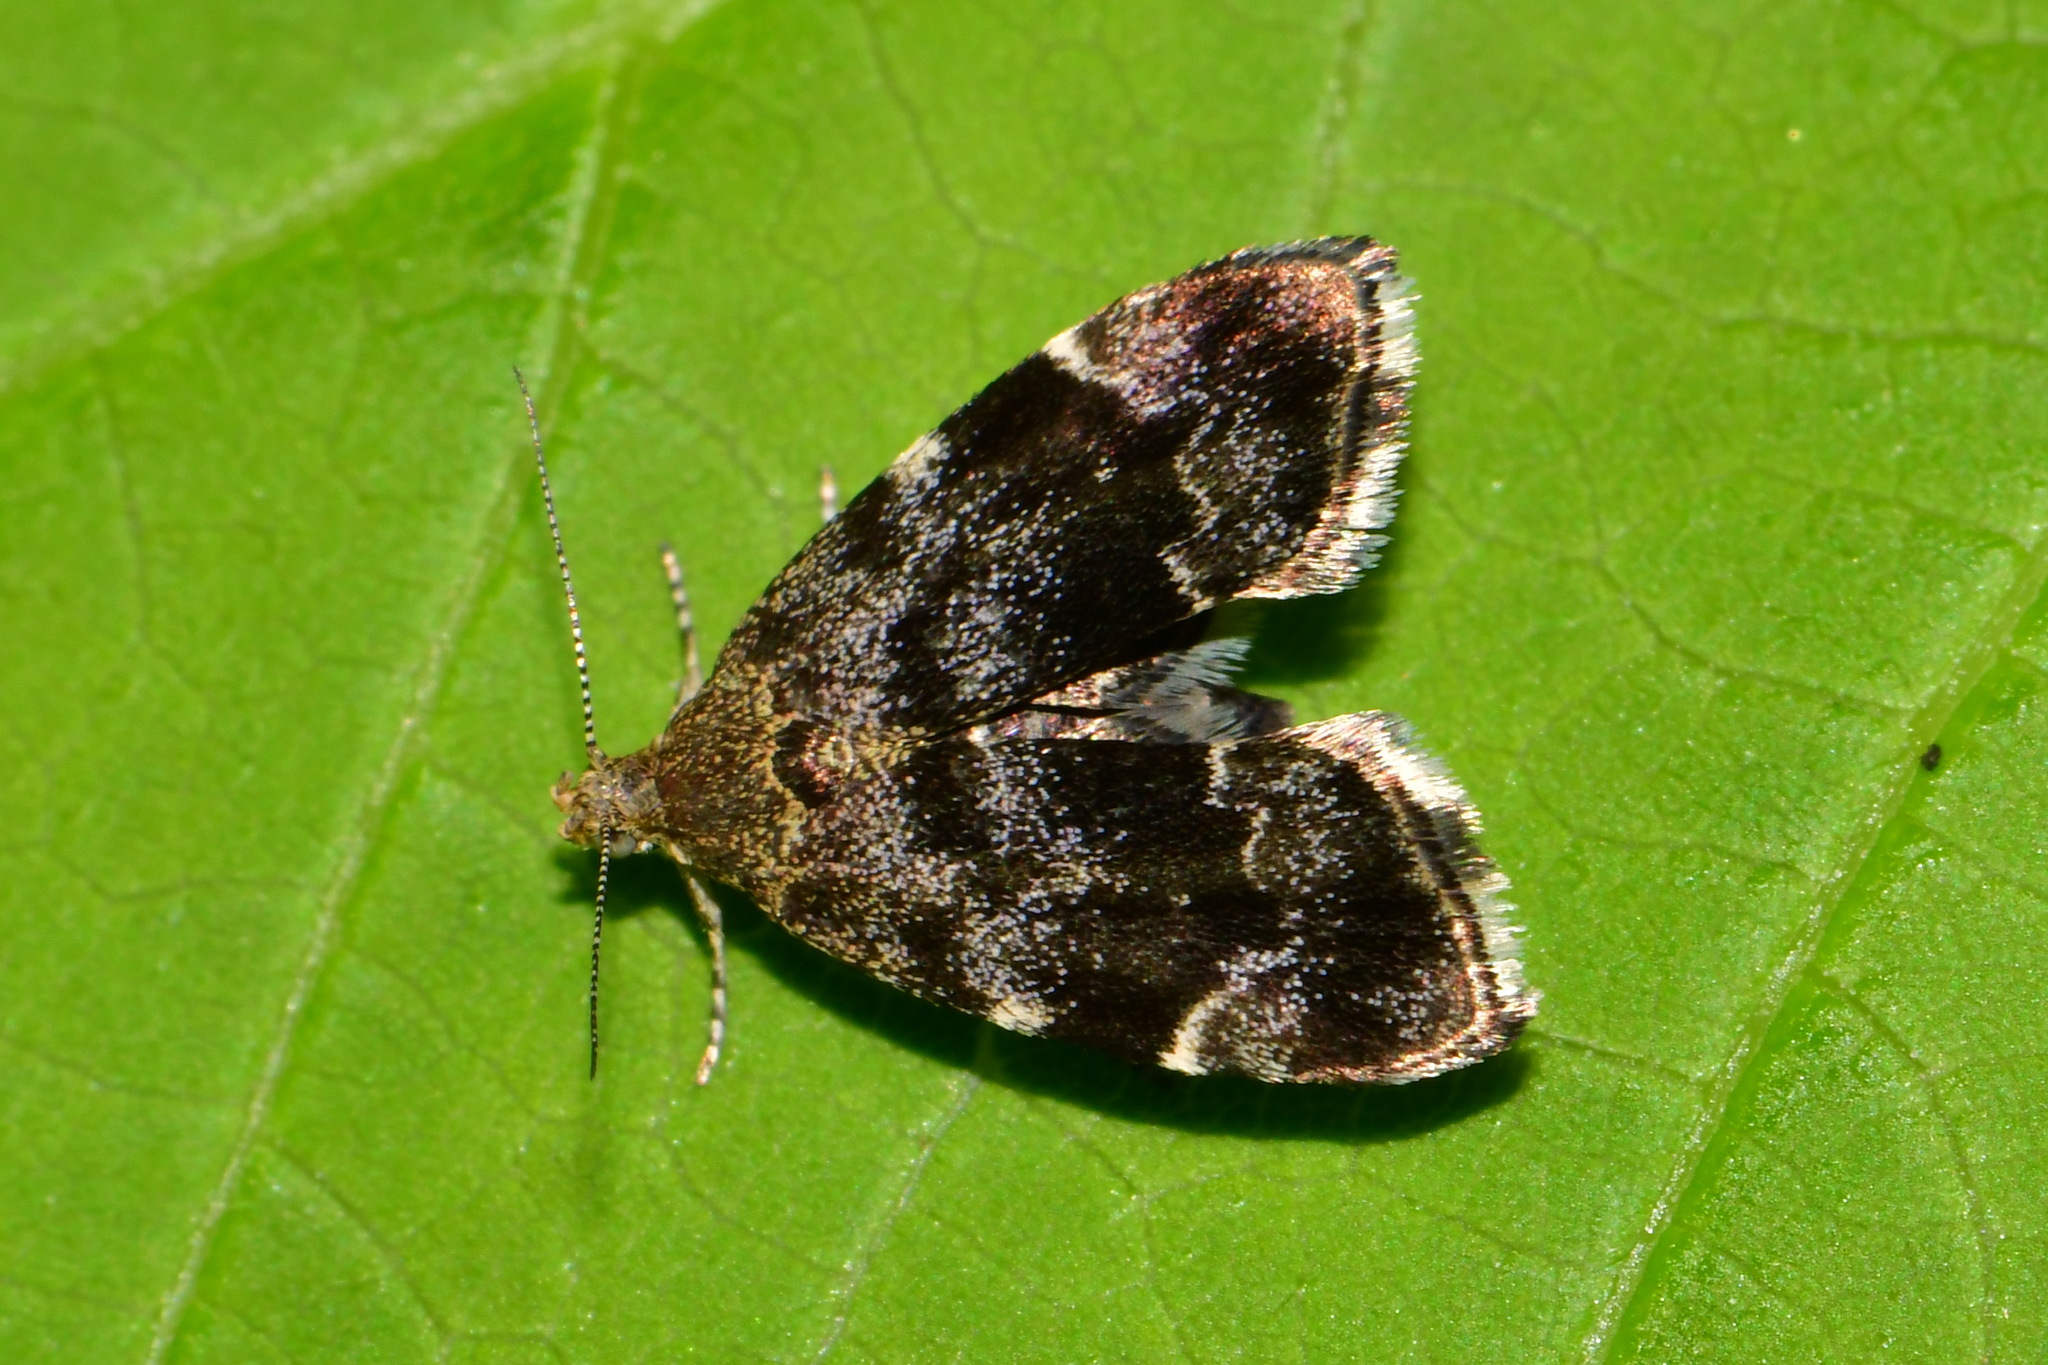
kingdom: Animalia
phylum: Arthropoda
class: Insecta
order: Lepidoptera
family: Choreutidae
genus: Anthophila
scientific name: Anthophila fabriciana
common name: Nettle-tap
